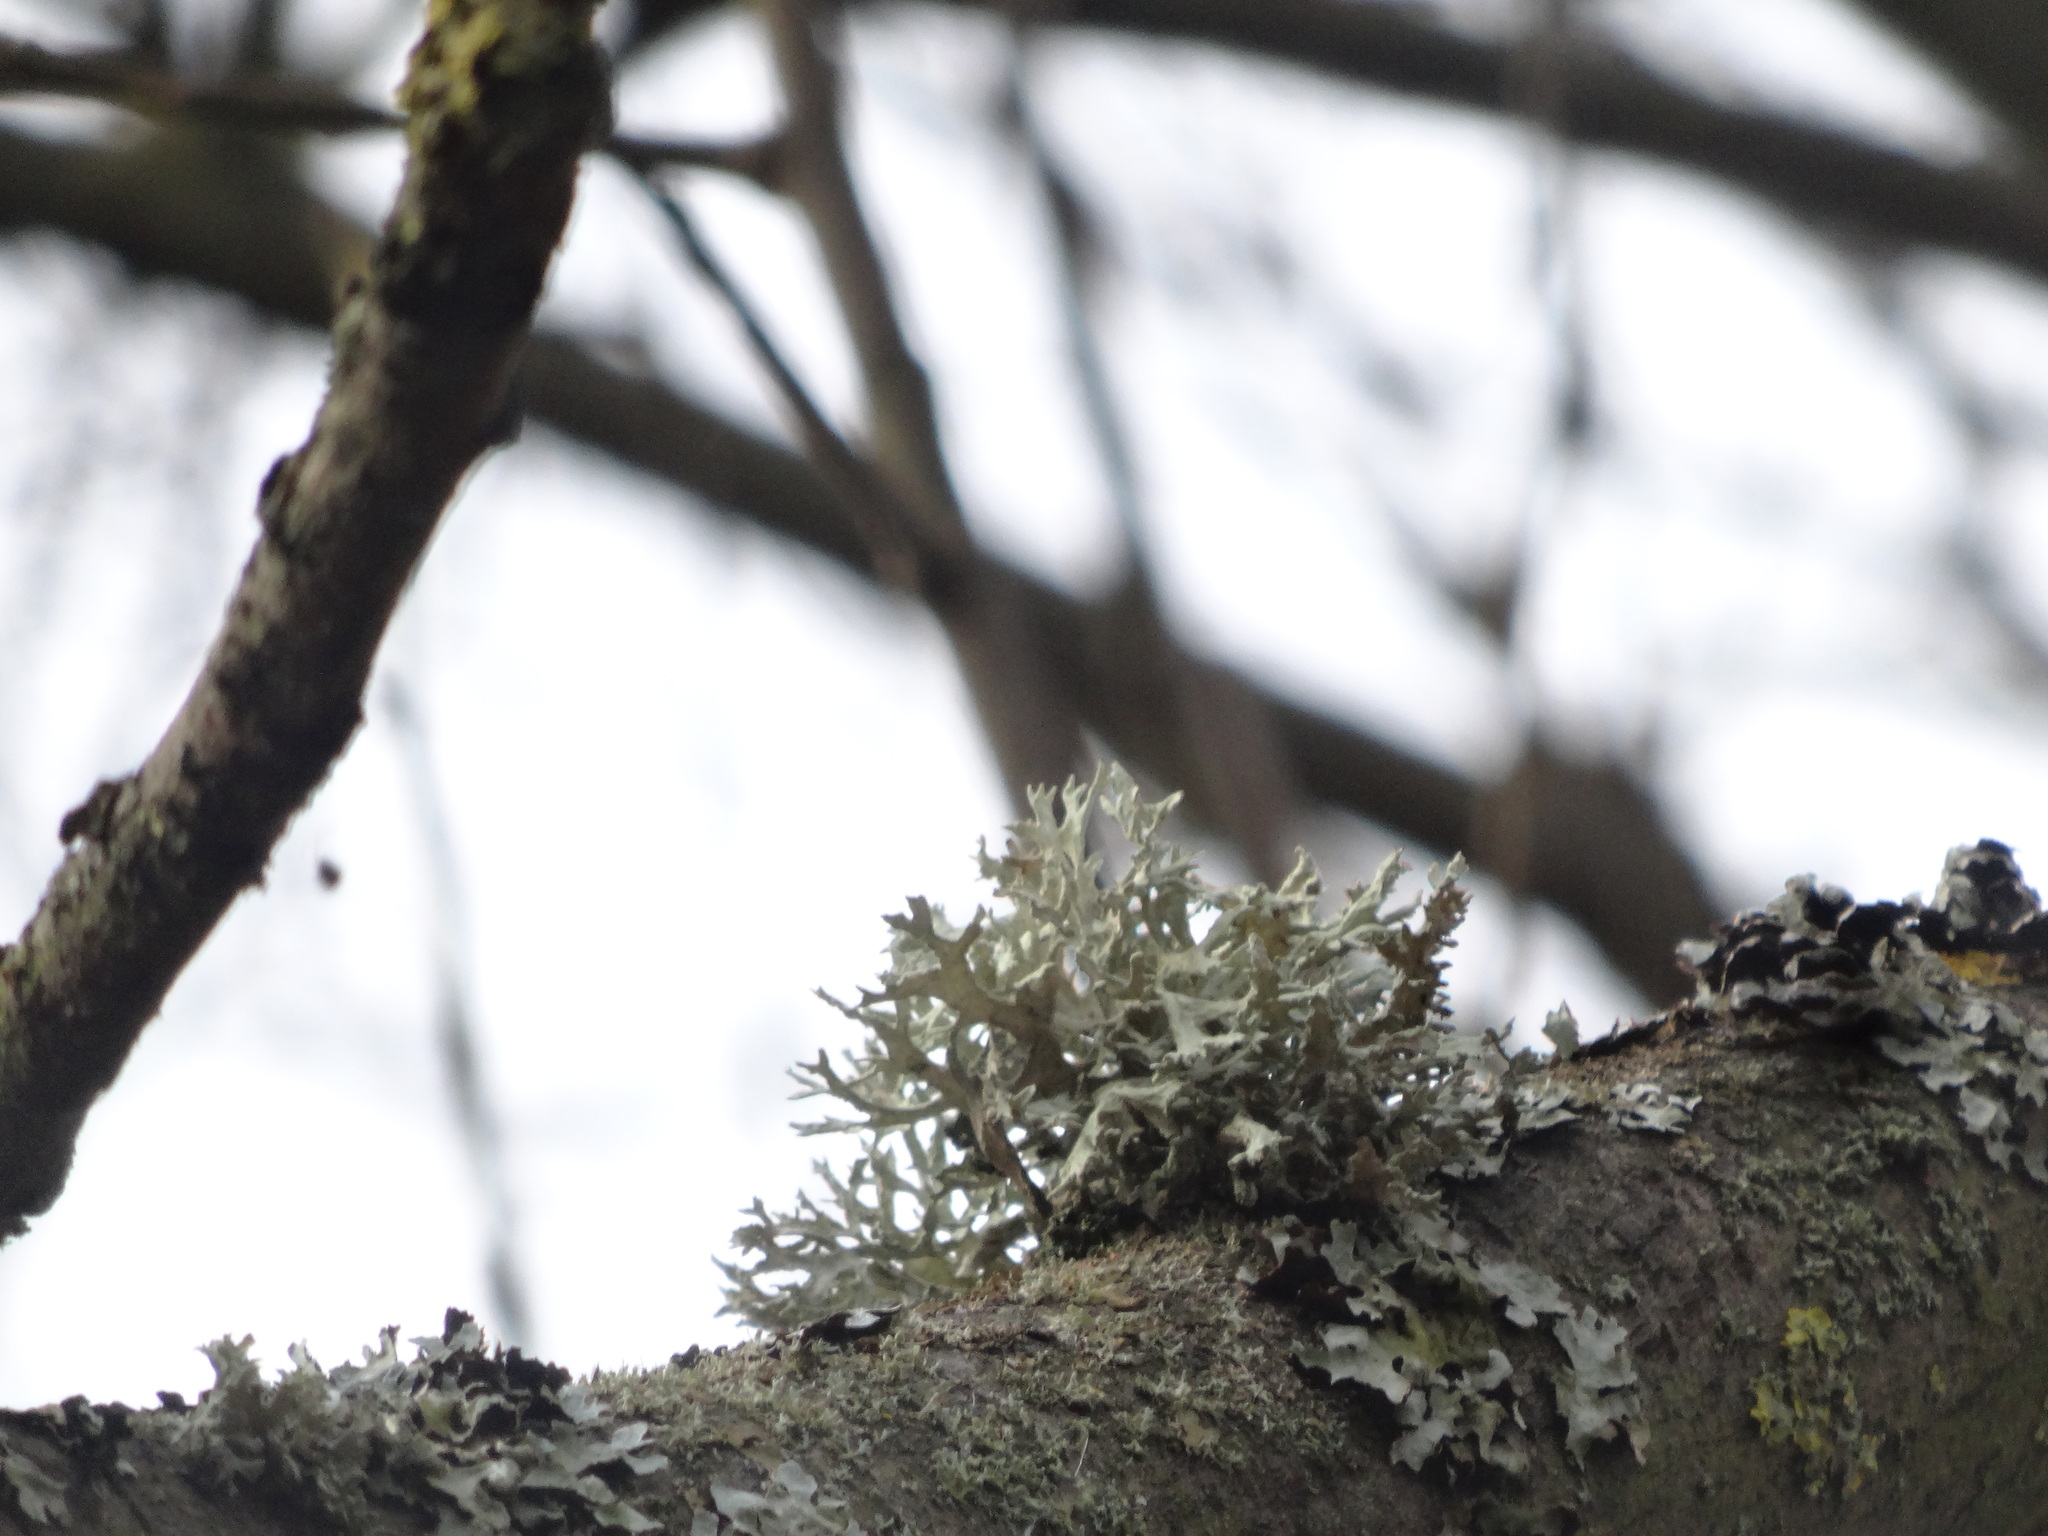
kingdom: Fungi
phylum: Ascomycota
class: Lecanoromycetes
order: Lecanorales
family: Parmeliaceae
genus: Evernia
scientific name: Evernia prunastri
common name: Oak moss
